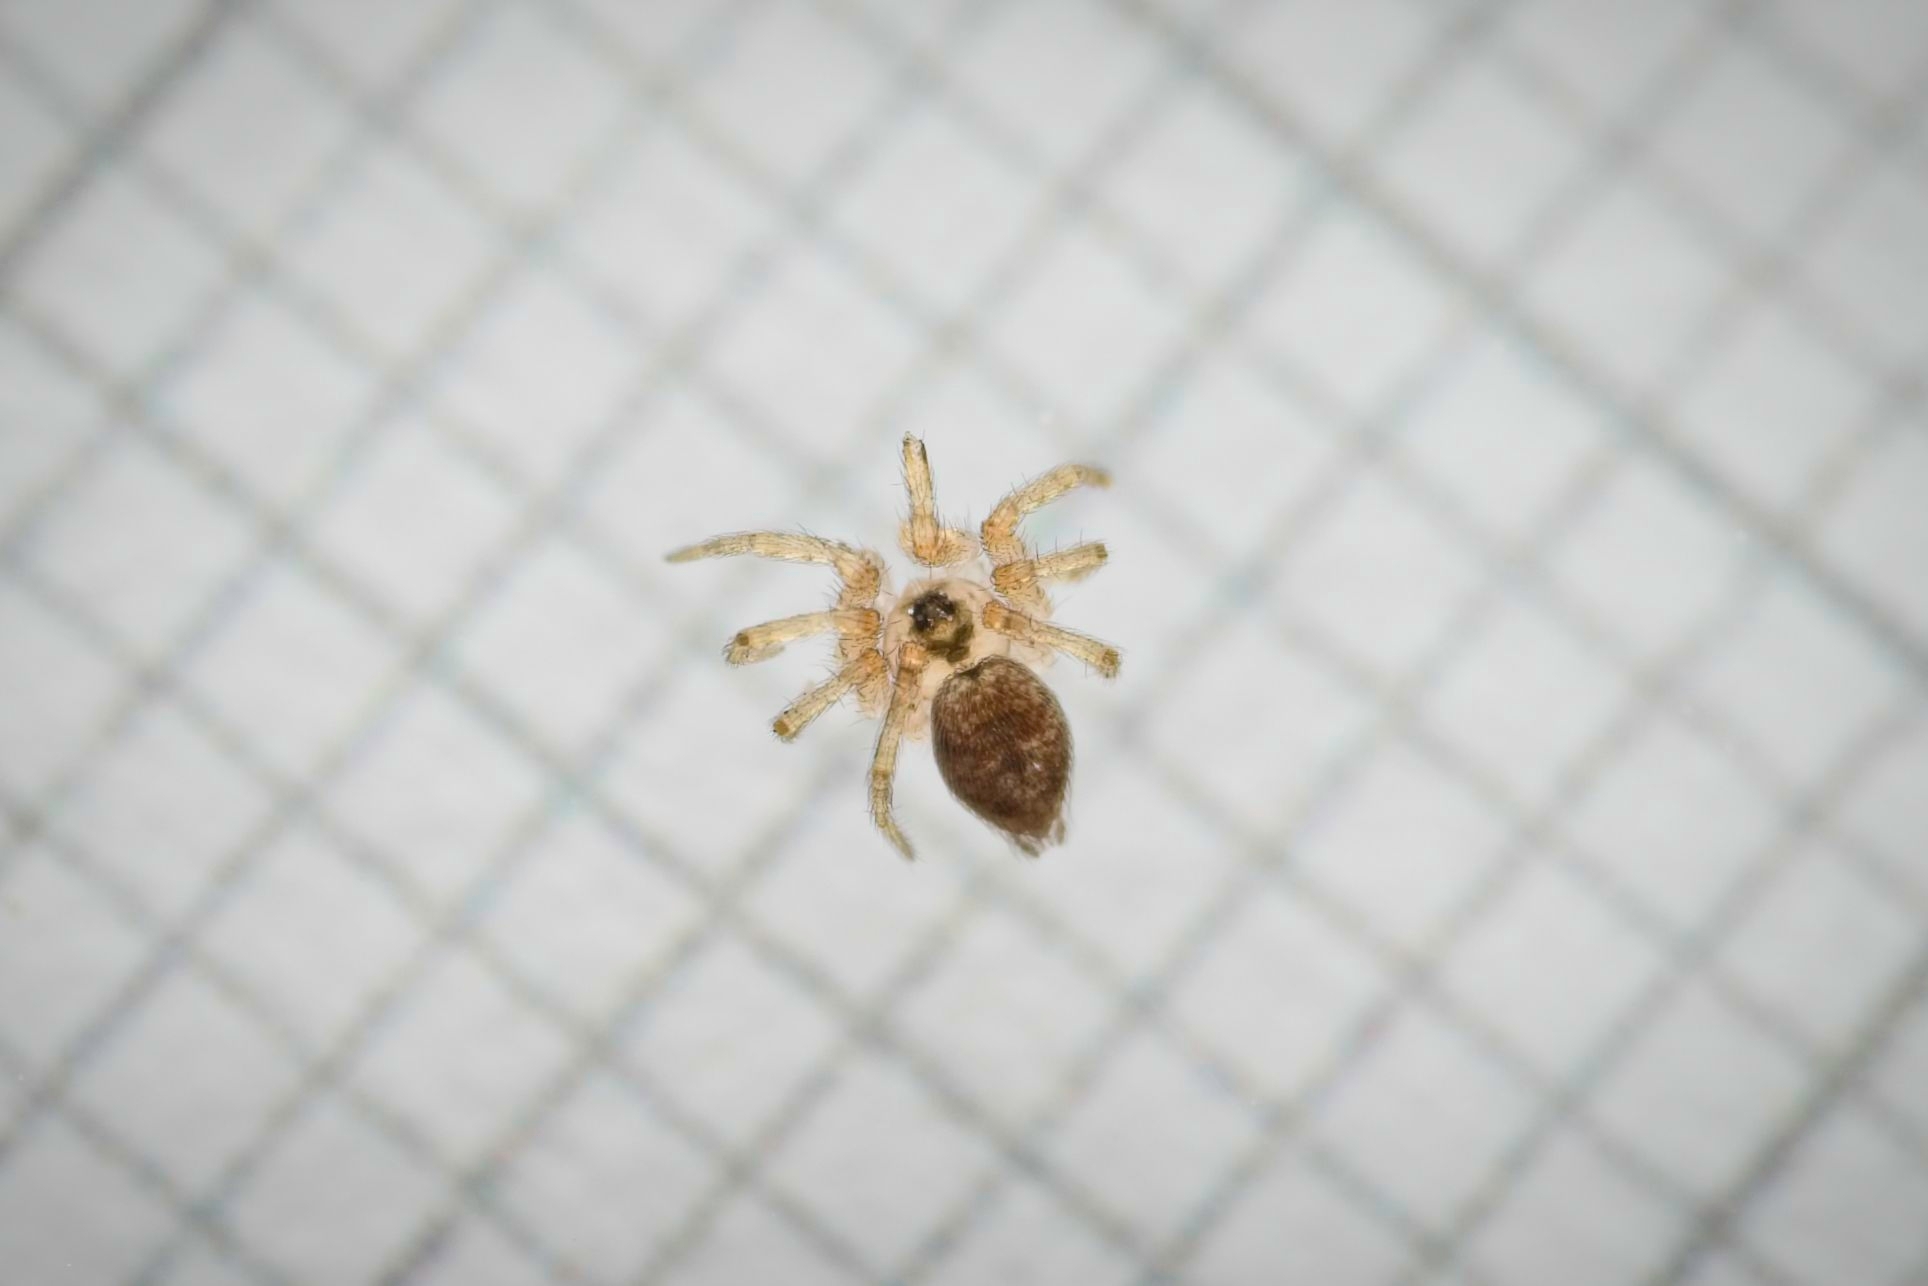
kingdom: Animalia
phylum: Arthropoda
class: Arachnida
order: Araneae
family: Oecobiidae
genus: Oecobius
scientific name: Oecobius navus
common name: Flatmesh weaver
